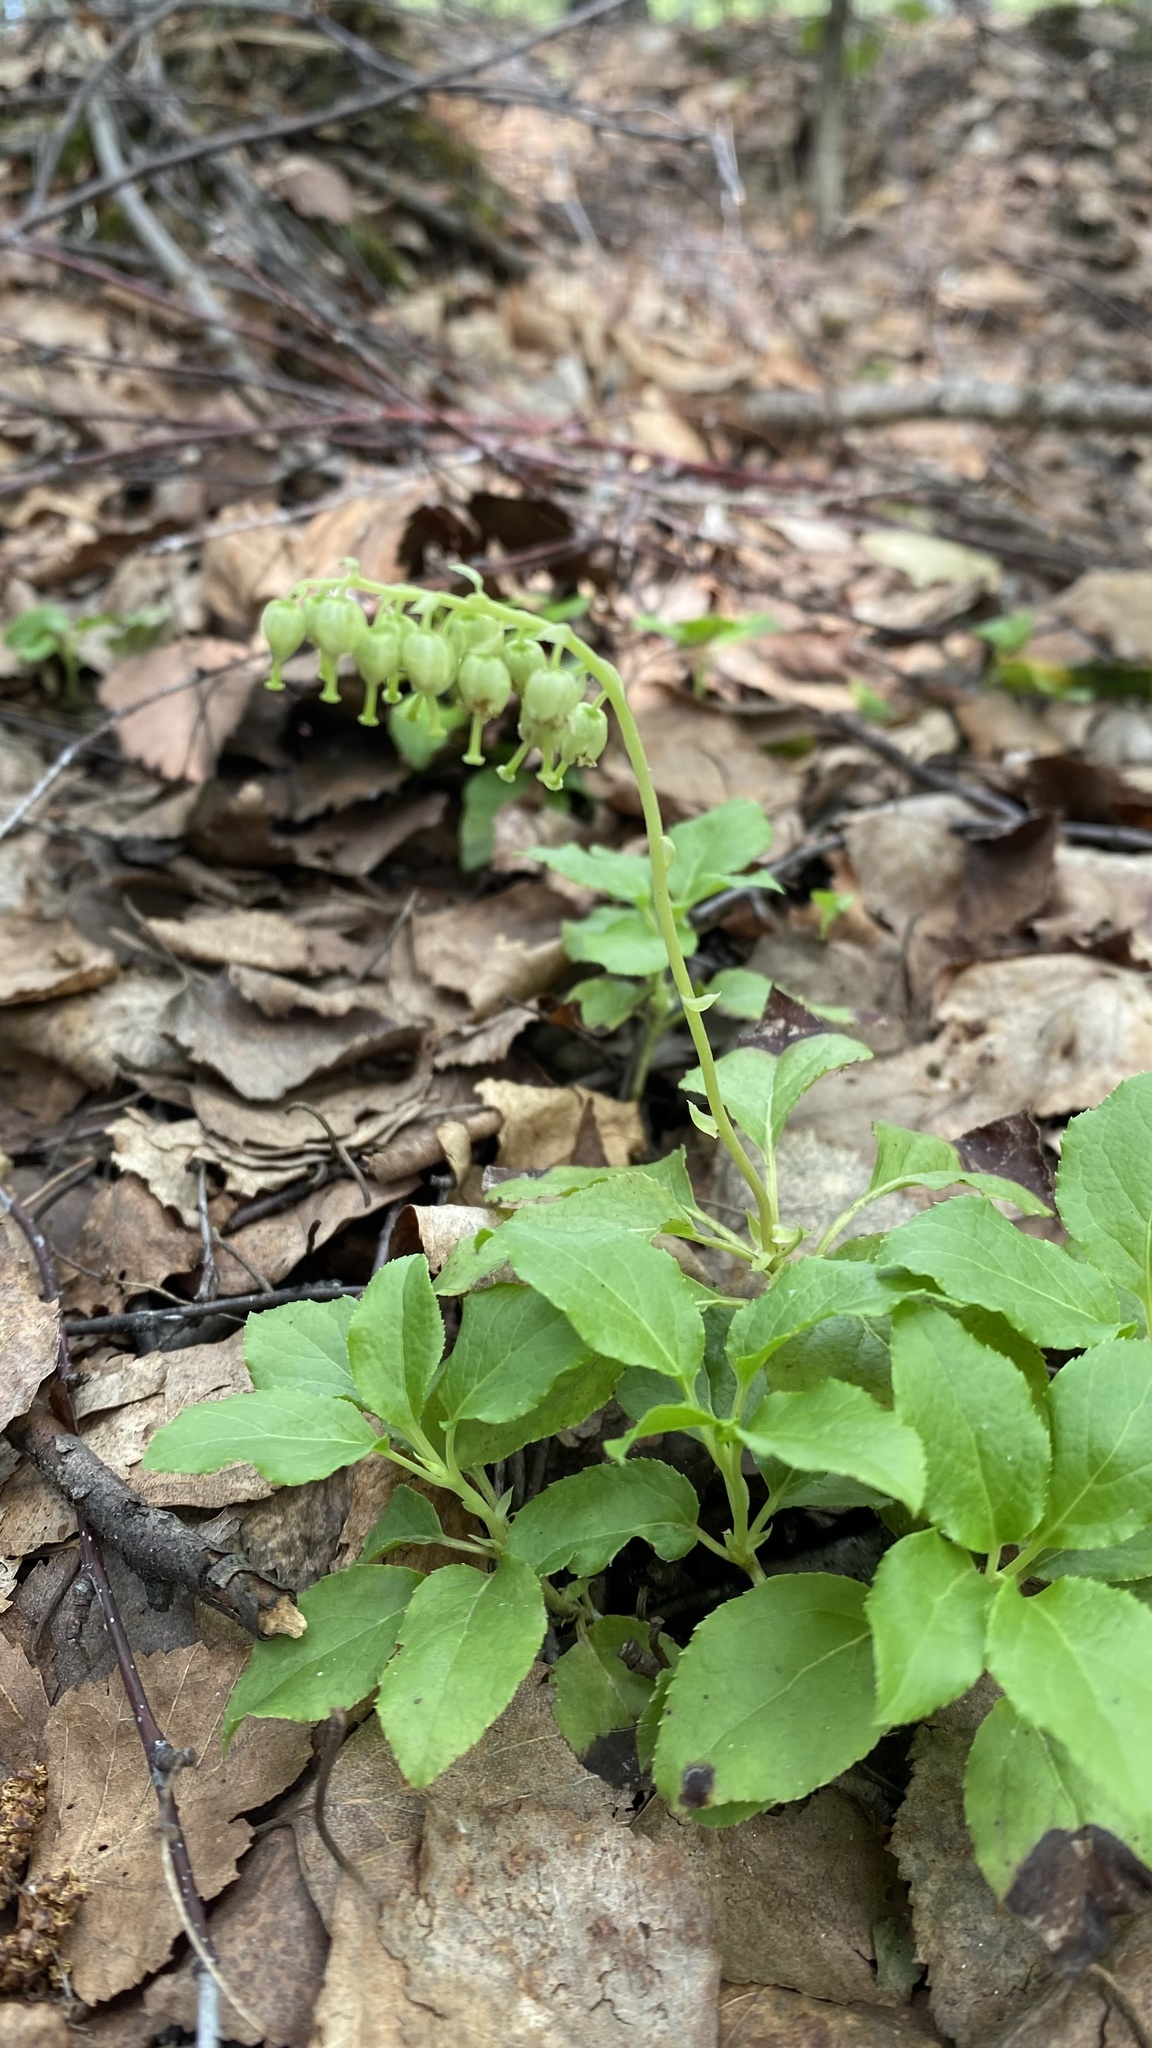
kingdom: Plantae
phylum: Tracheophyta
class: Magnoliopsida
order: Ericales
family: Ericaceae
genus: Orthilia
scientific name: Orthilia secunda
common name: One-sided orthilia
